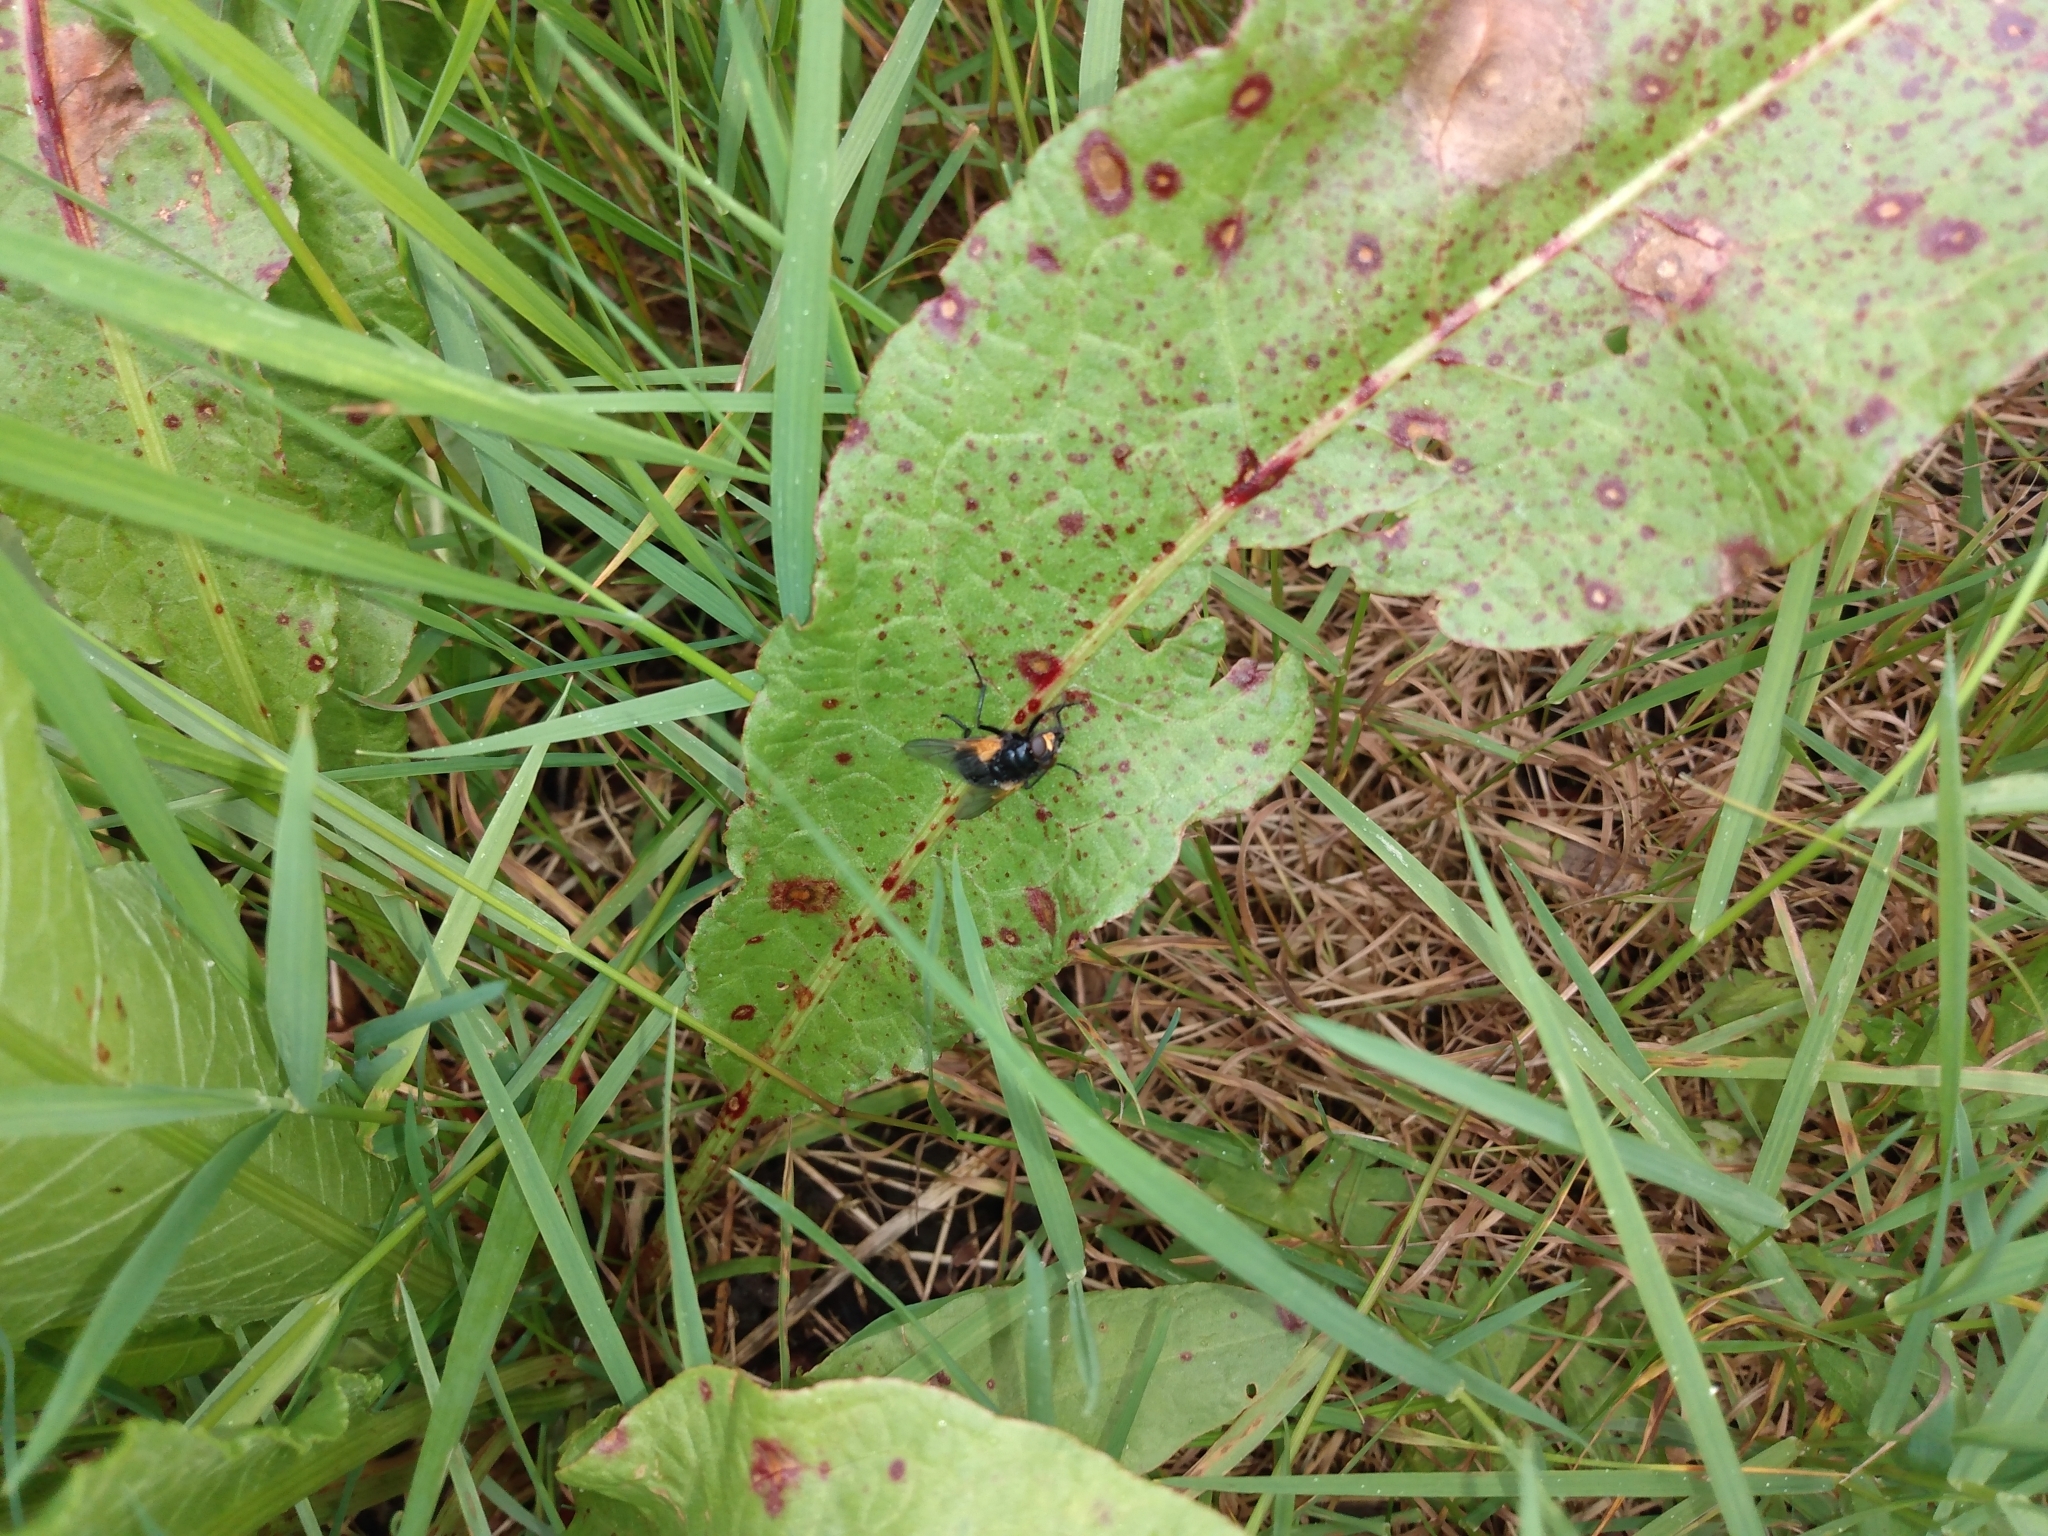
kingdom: Animalia
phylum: Arthropoda
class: Insecta
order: Diptera
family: Muscidae
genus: Mesembrina
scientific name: Mesembrina meridiana
